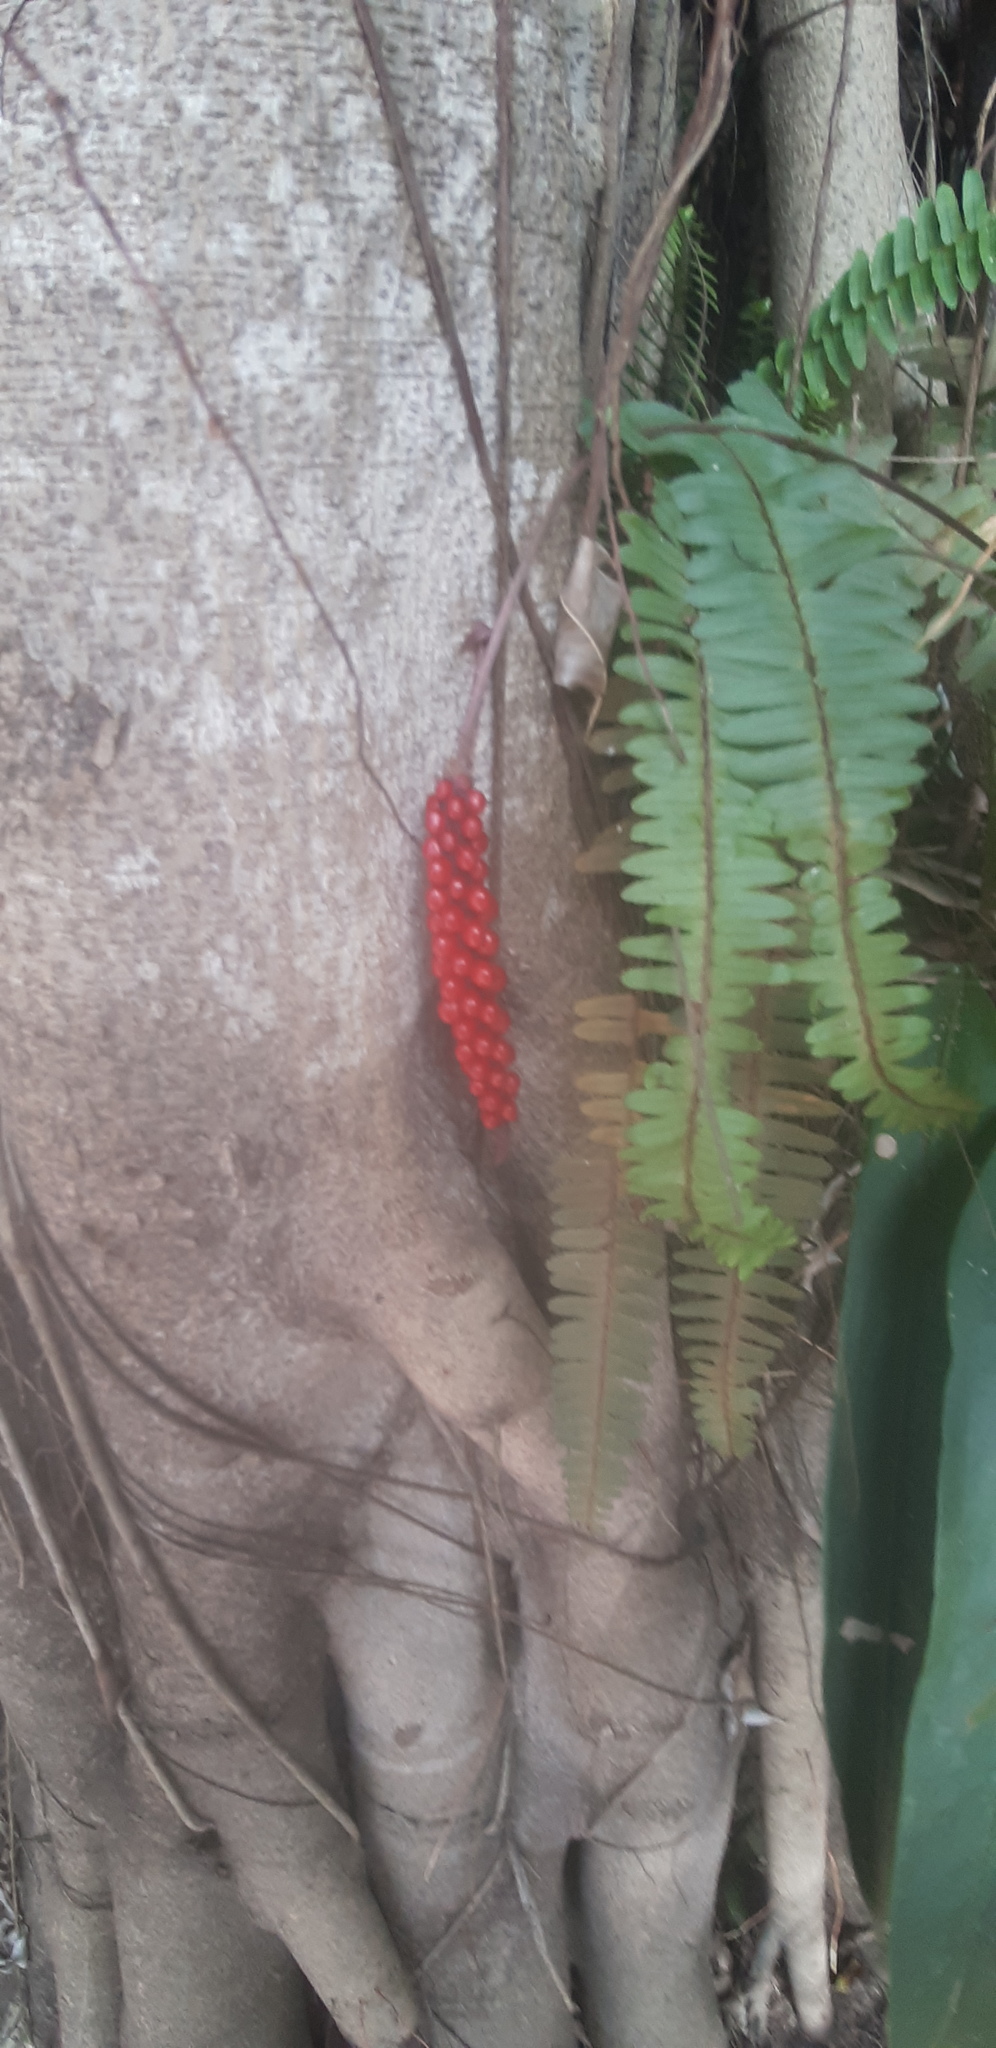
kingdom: Plantae
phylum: Tracheophyta
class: Liliopsida
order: Alismatales
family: Araceae
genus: Anthurium
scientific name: Anthurium gracile
